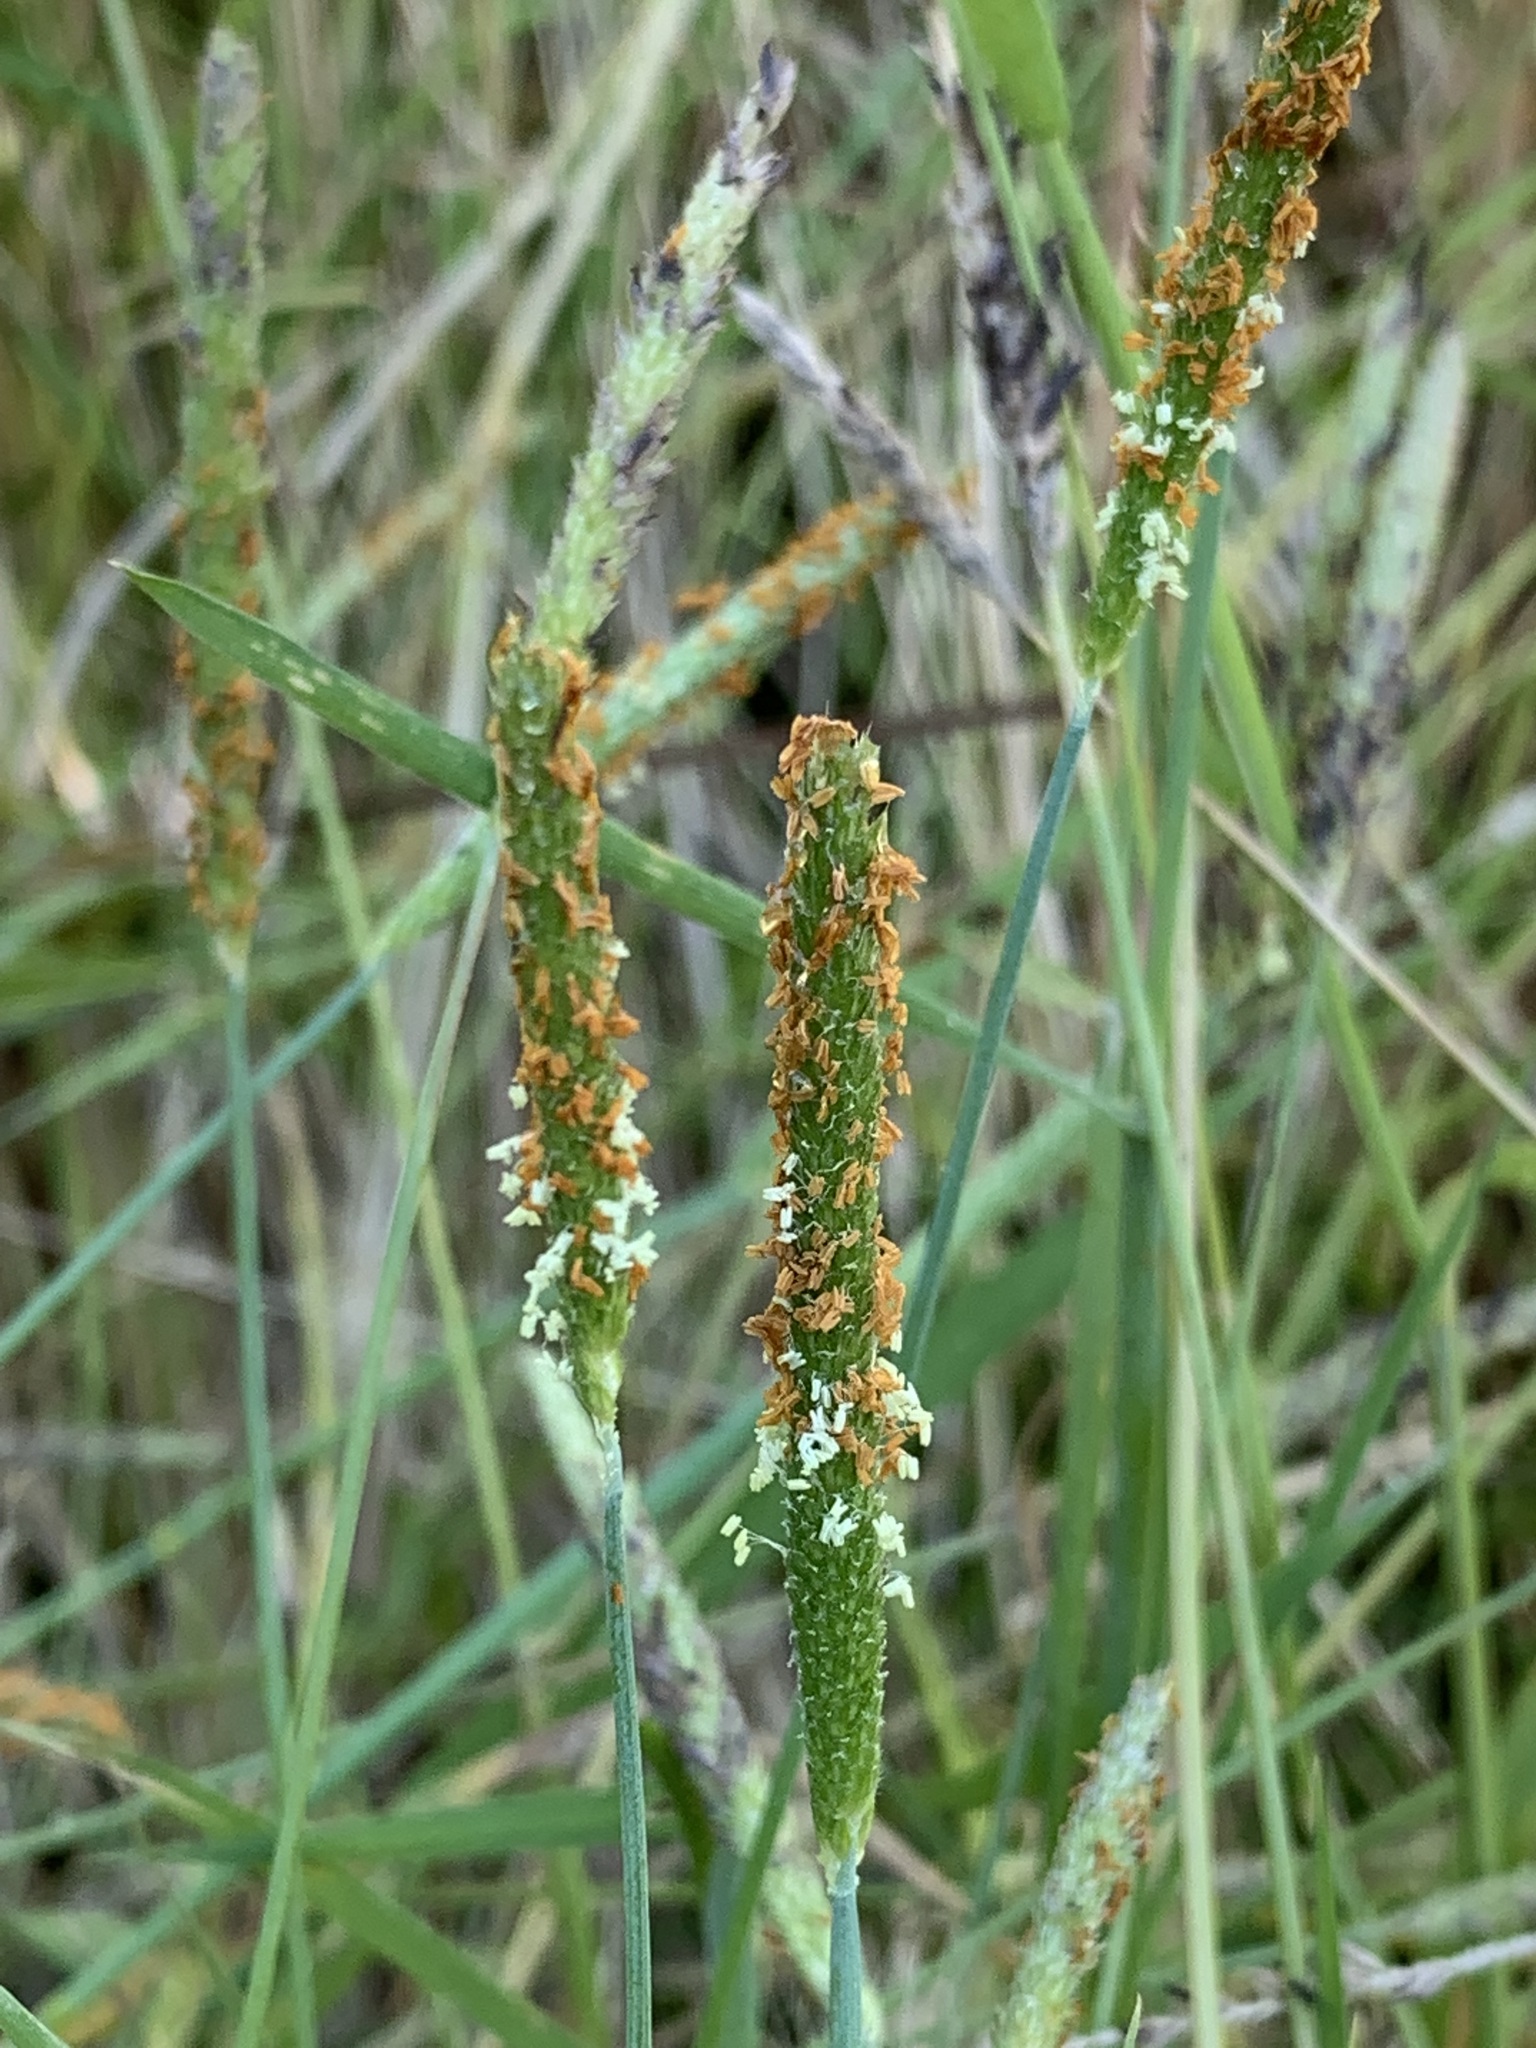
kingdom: Plantae
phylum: Tracheophyta
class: Liliopsida
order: Poales
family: Poaceae
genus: Alopecurus
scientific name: Alopecurus aequalis
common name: Orange foxtail
